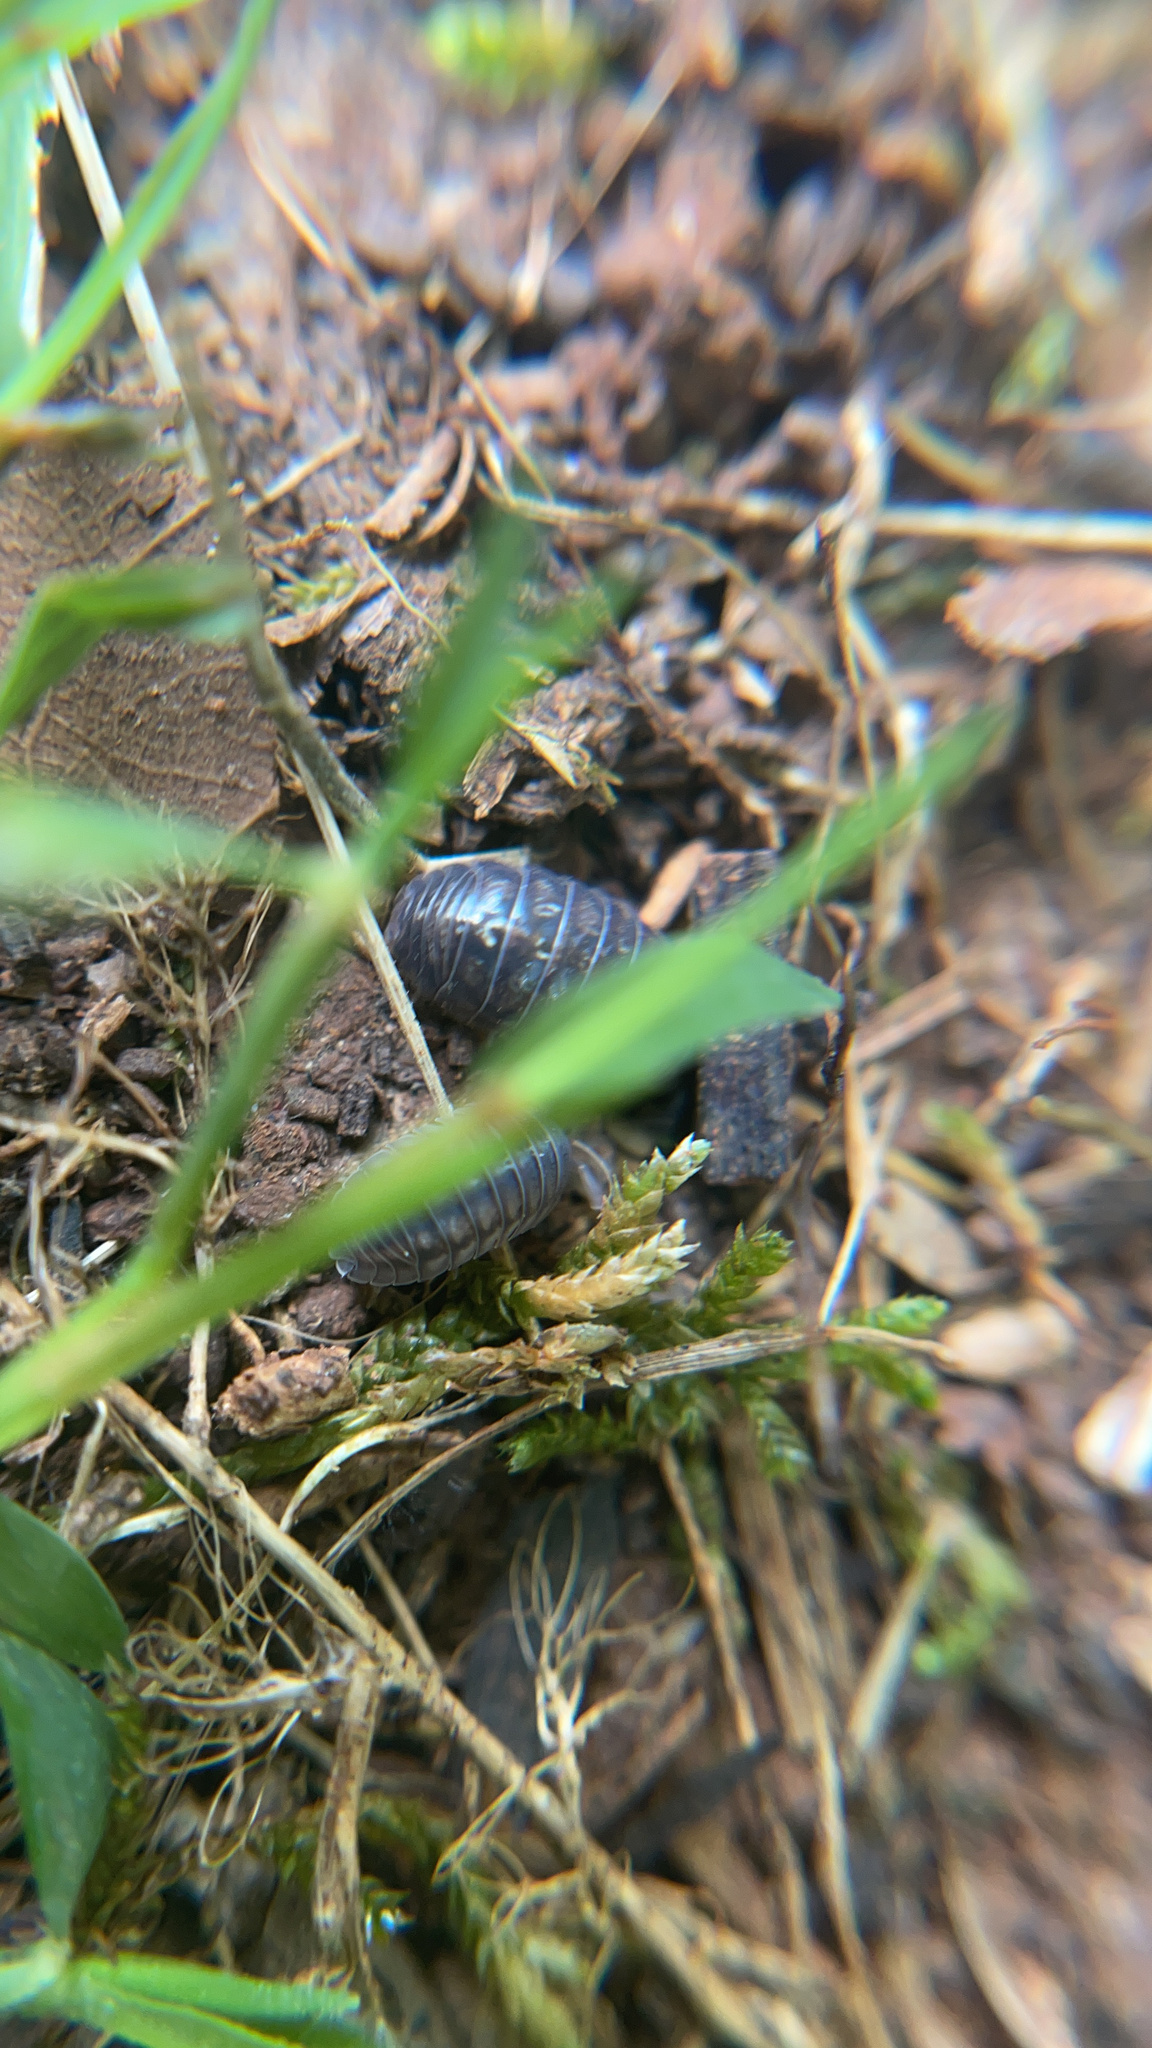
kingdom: Animalia
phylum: Arthropoda
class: Malacostraca
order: Isopoda
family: Armadillidiidae
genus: Armadillidium
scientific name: Armadillidium vulgare
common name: Common pill woodlouse
